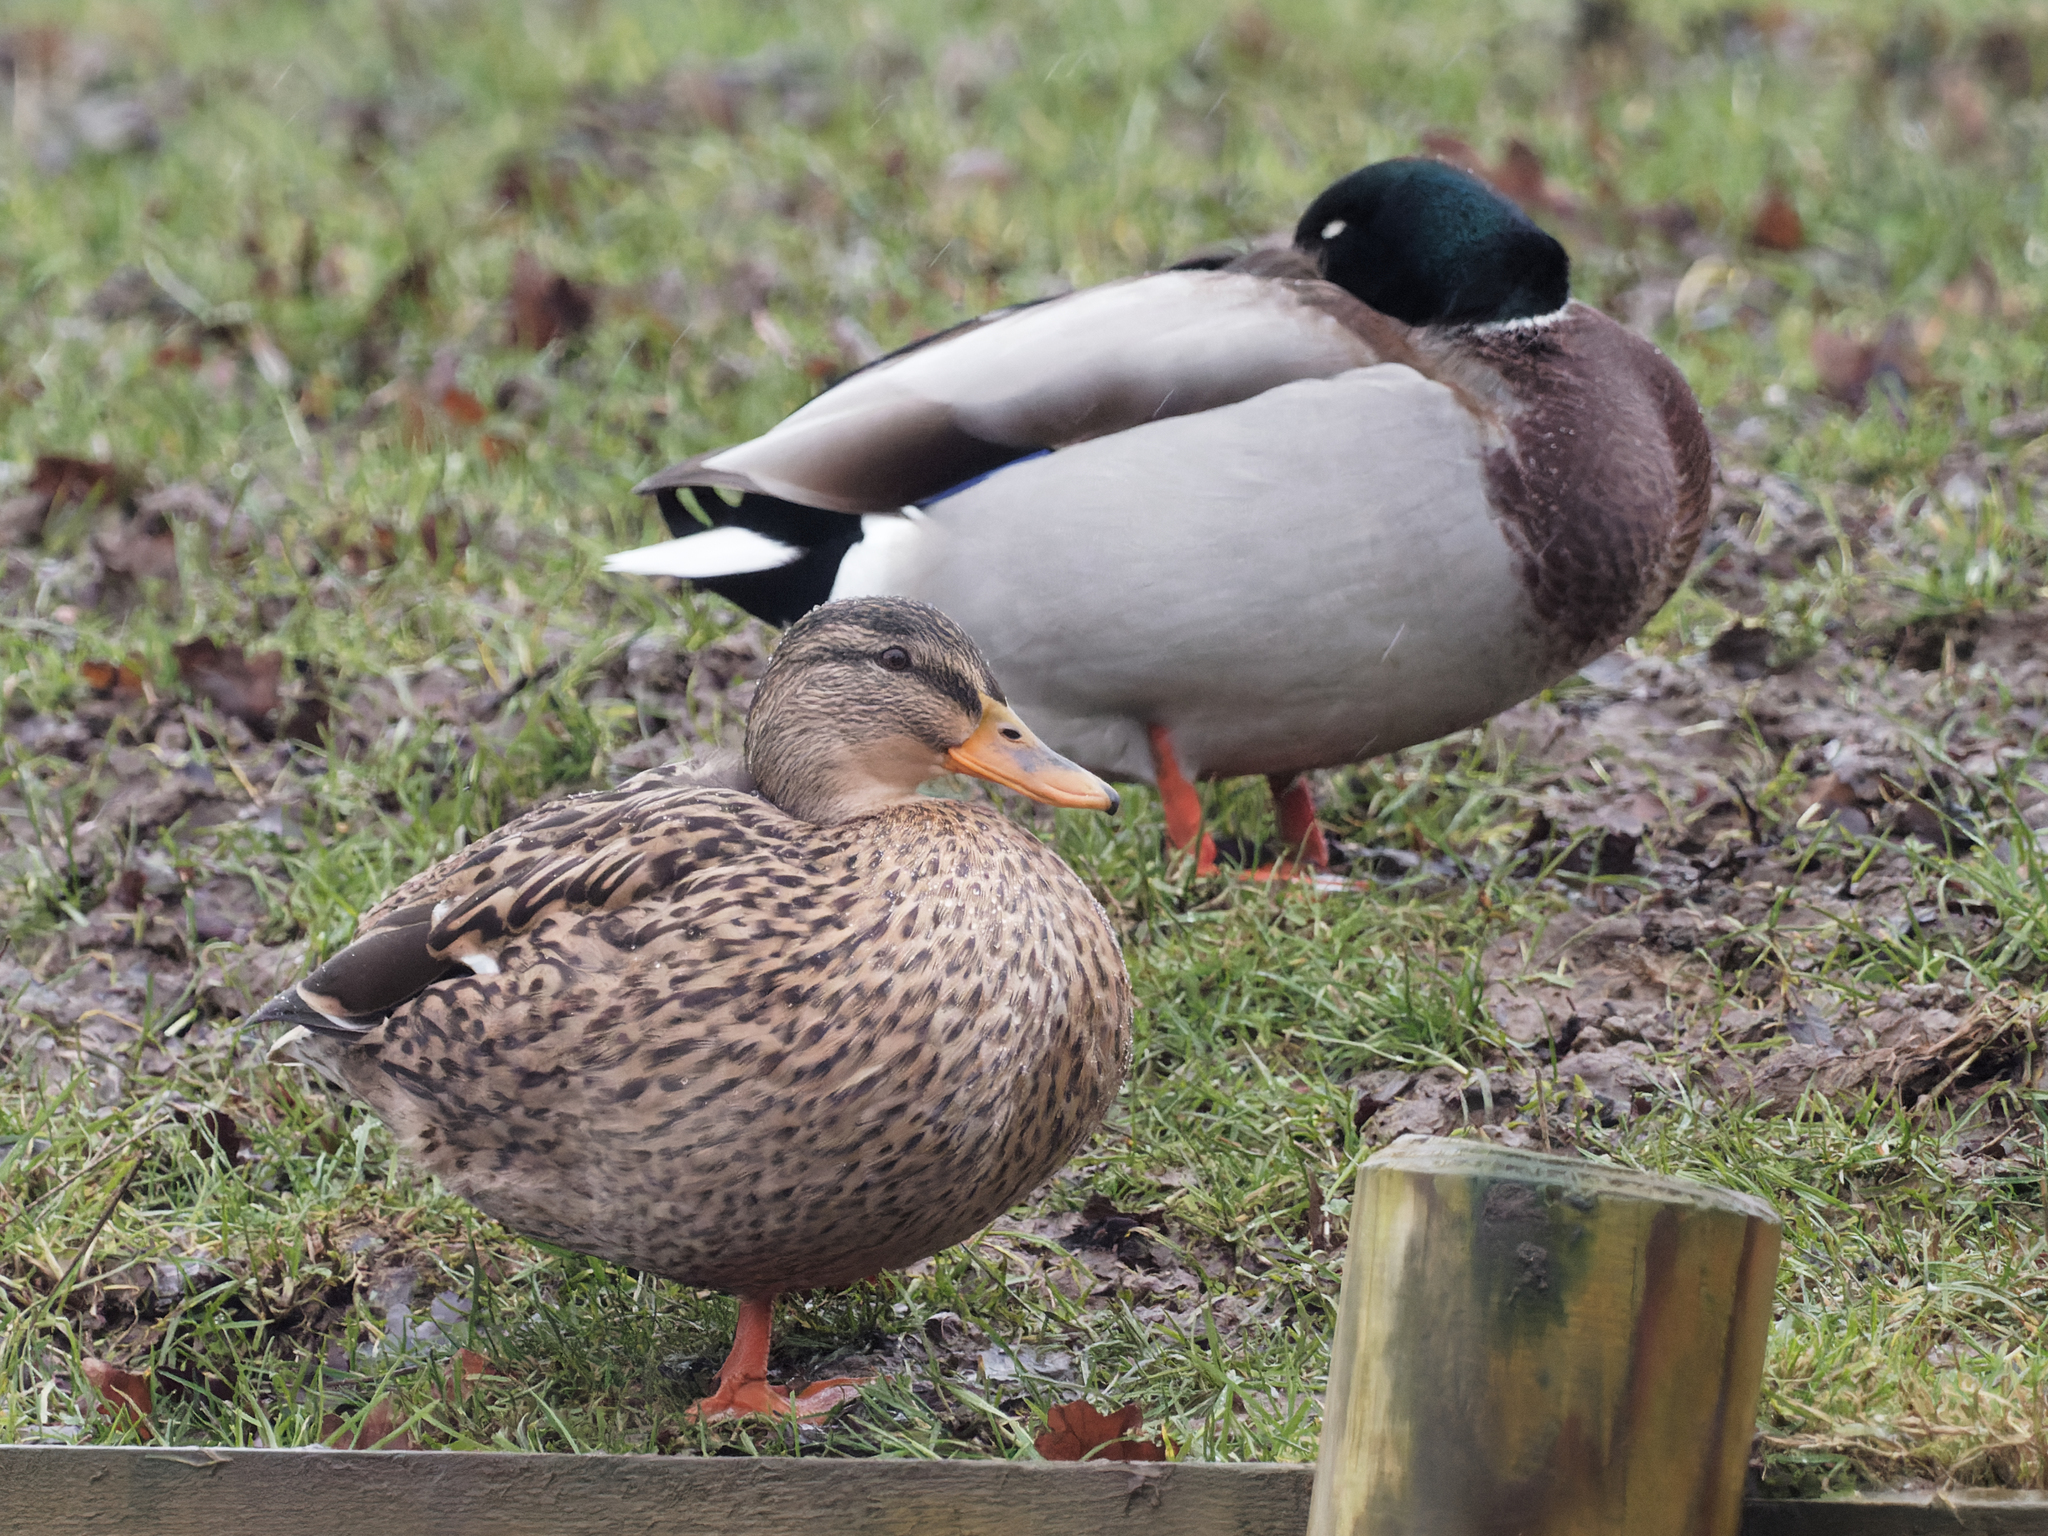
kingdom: Animalia
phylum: Chordata
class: Aves
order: Anseriformes
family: Anatidae
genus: Anas
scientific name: Anas platyrhynchos
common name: Mallard
